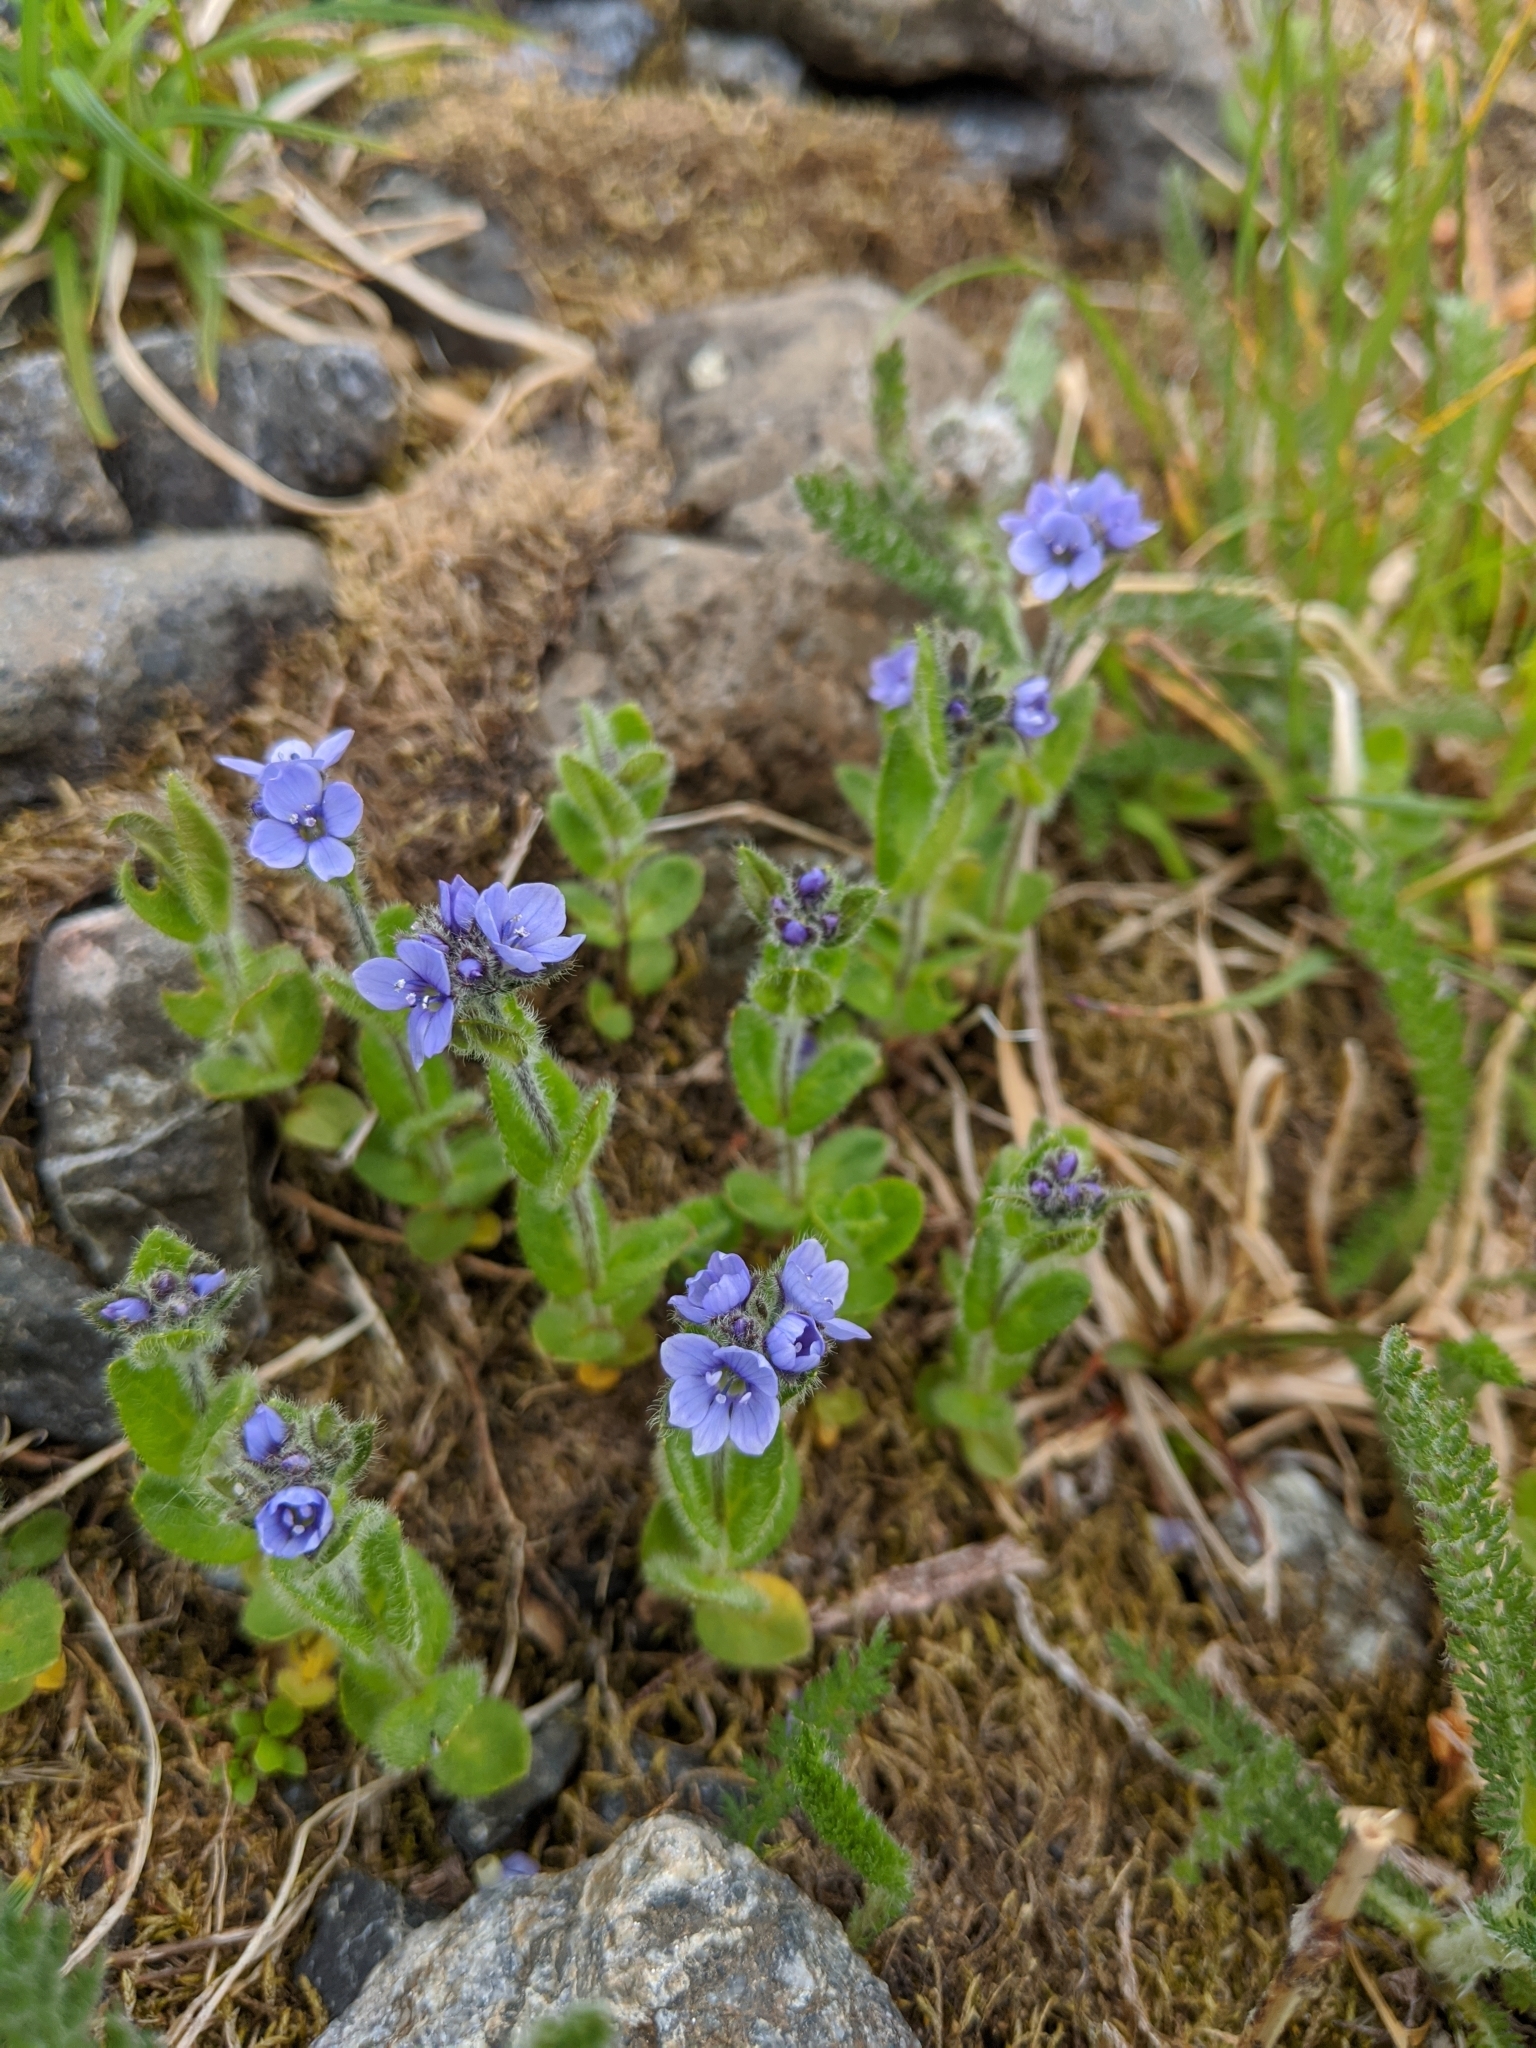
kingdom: Plantae
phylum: Tracheophyta
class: Magnoliopsida
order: Lamiales
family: Plantaginaceae
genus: Veronica
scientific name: Veronica wormskjoldii
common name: American alpine speedwell
